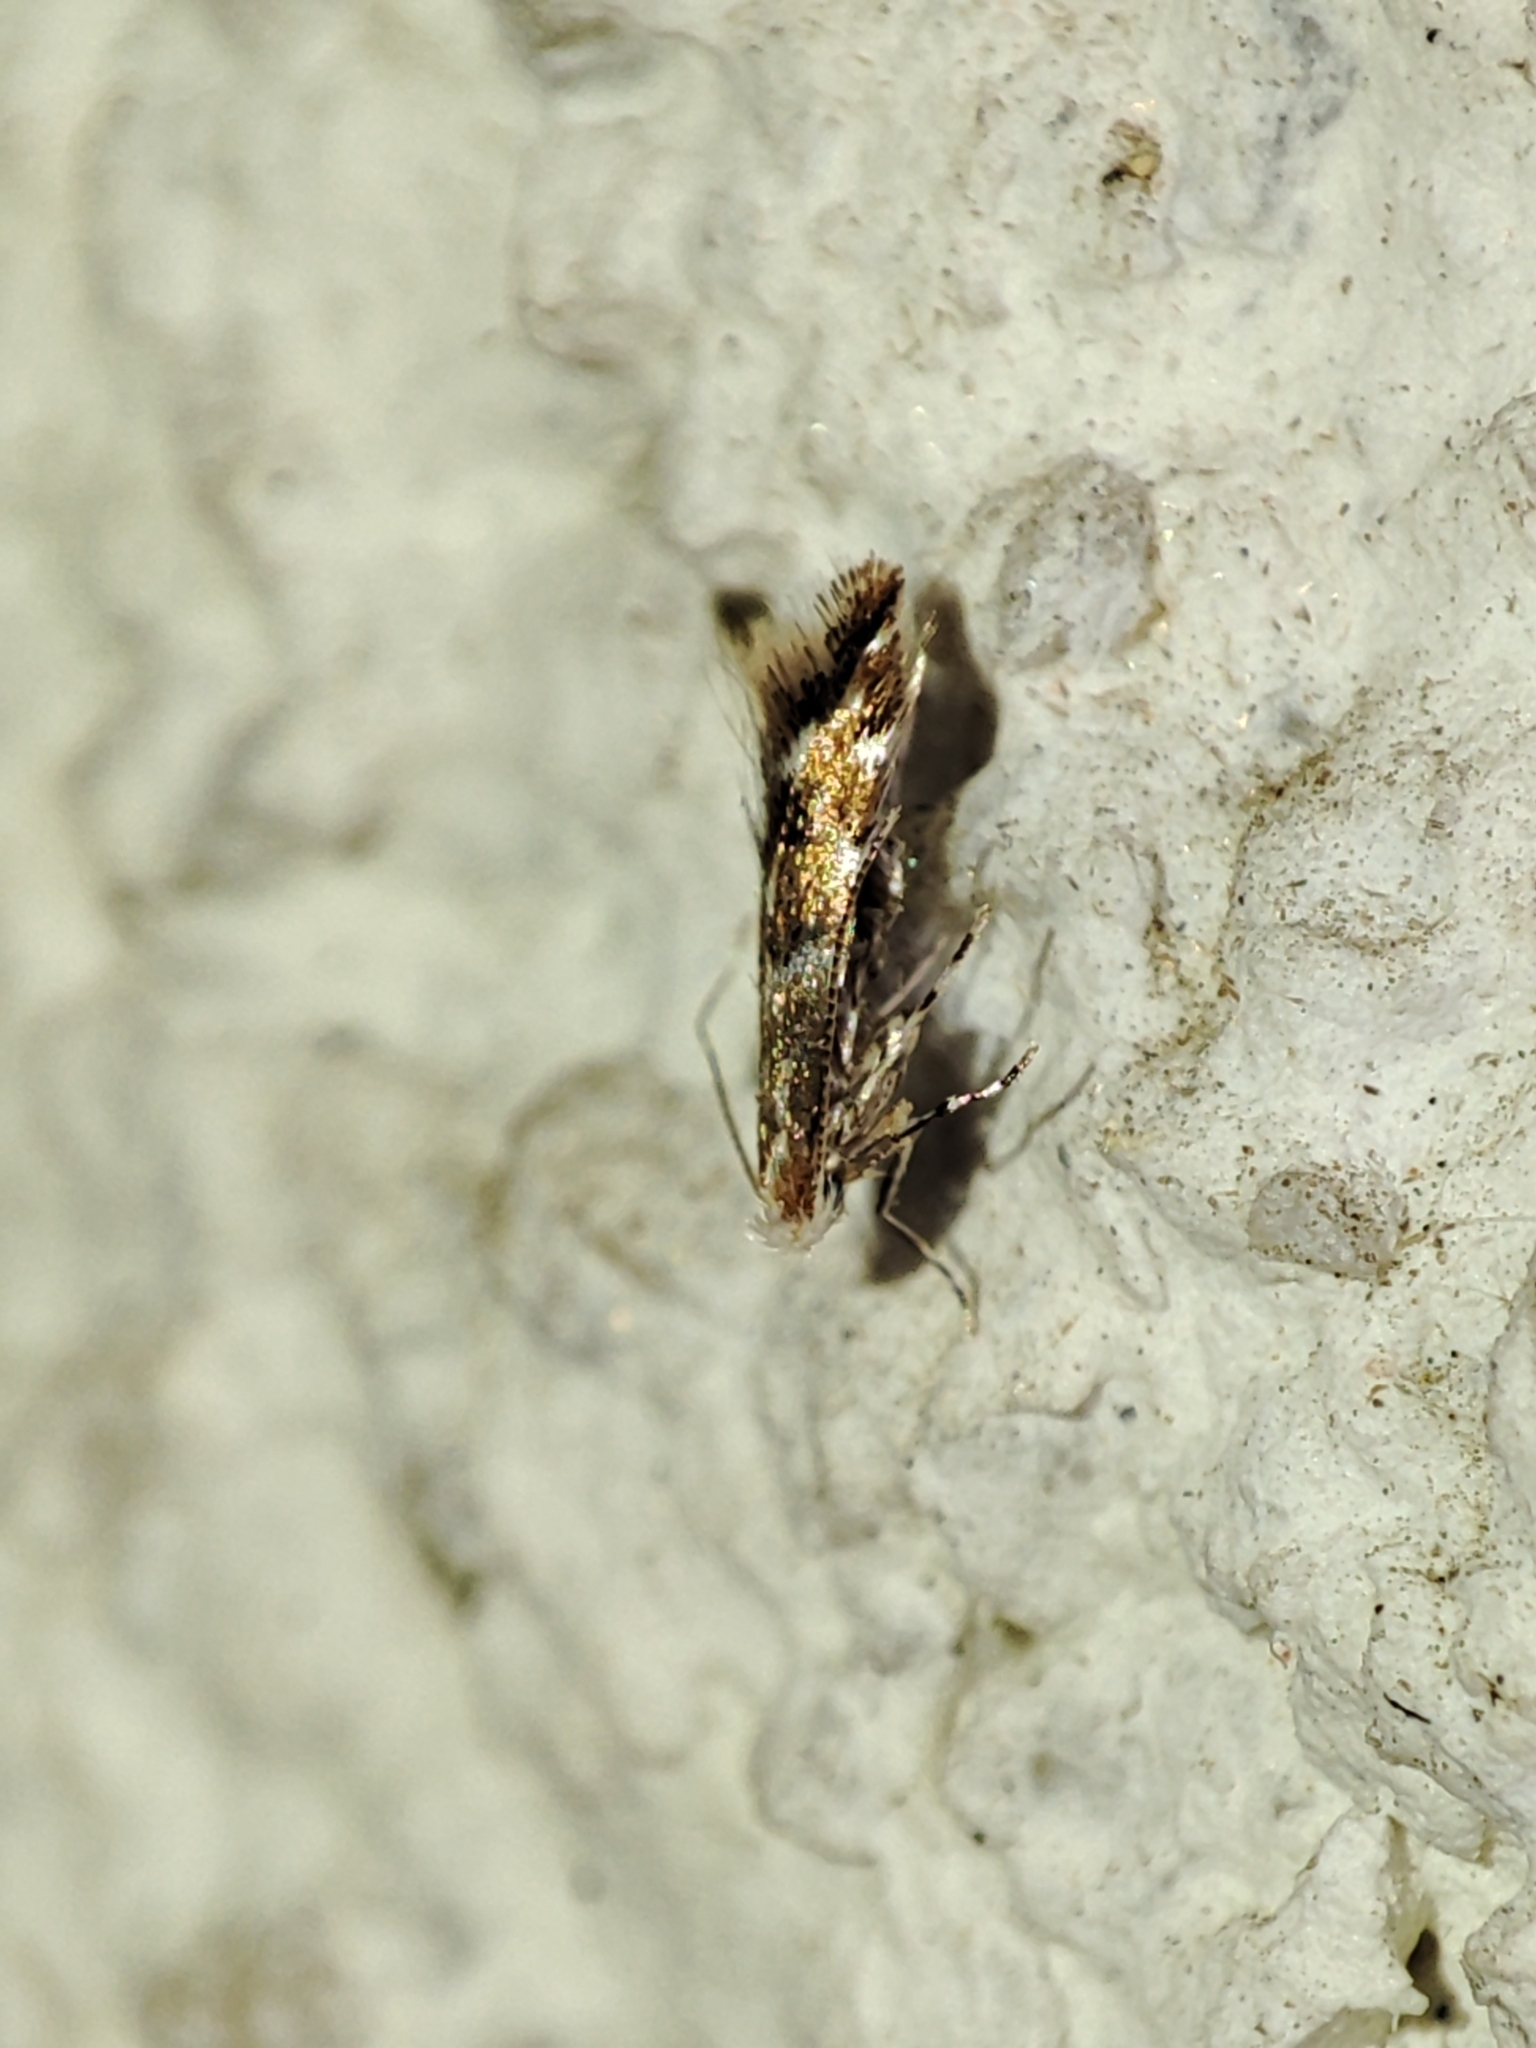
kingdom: Animalia
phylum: Arthropoda
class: Insecta
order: Lepidoptera
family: Gracillariidae
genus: Cameraria
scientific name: Cameraria ohridella
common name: Horse-chestnut leaf-miner
